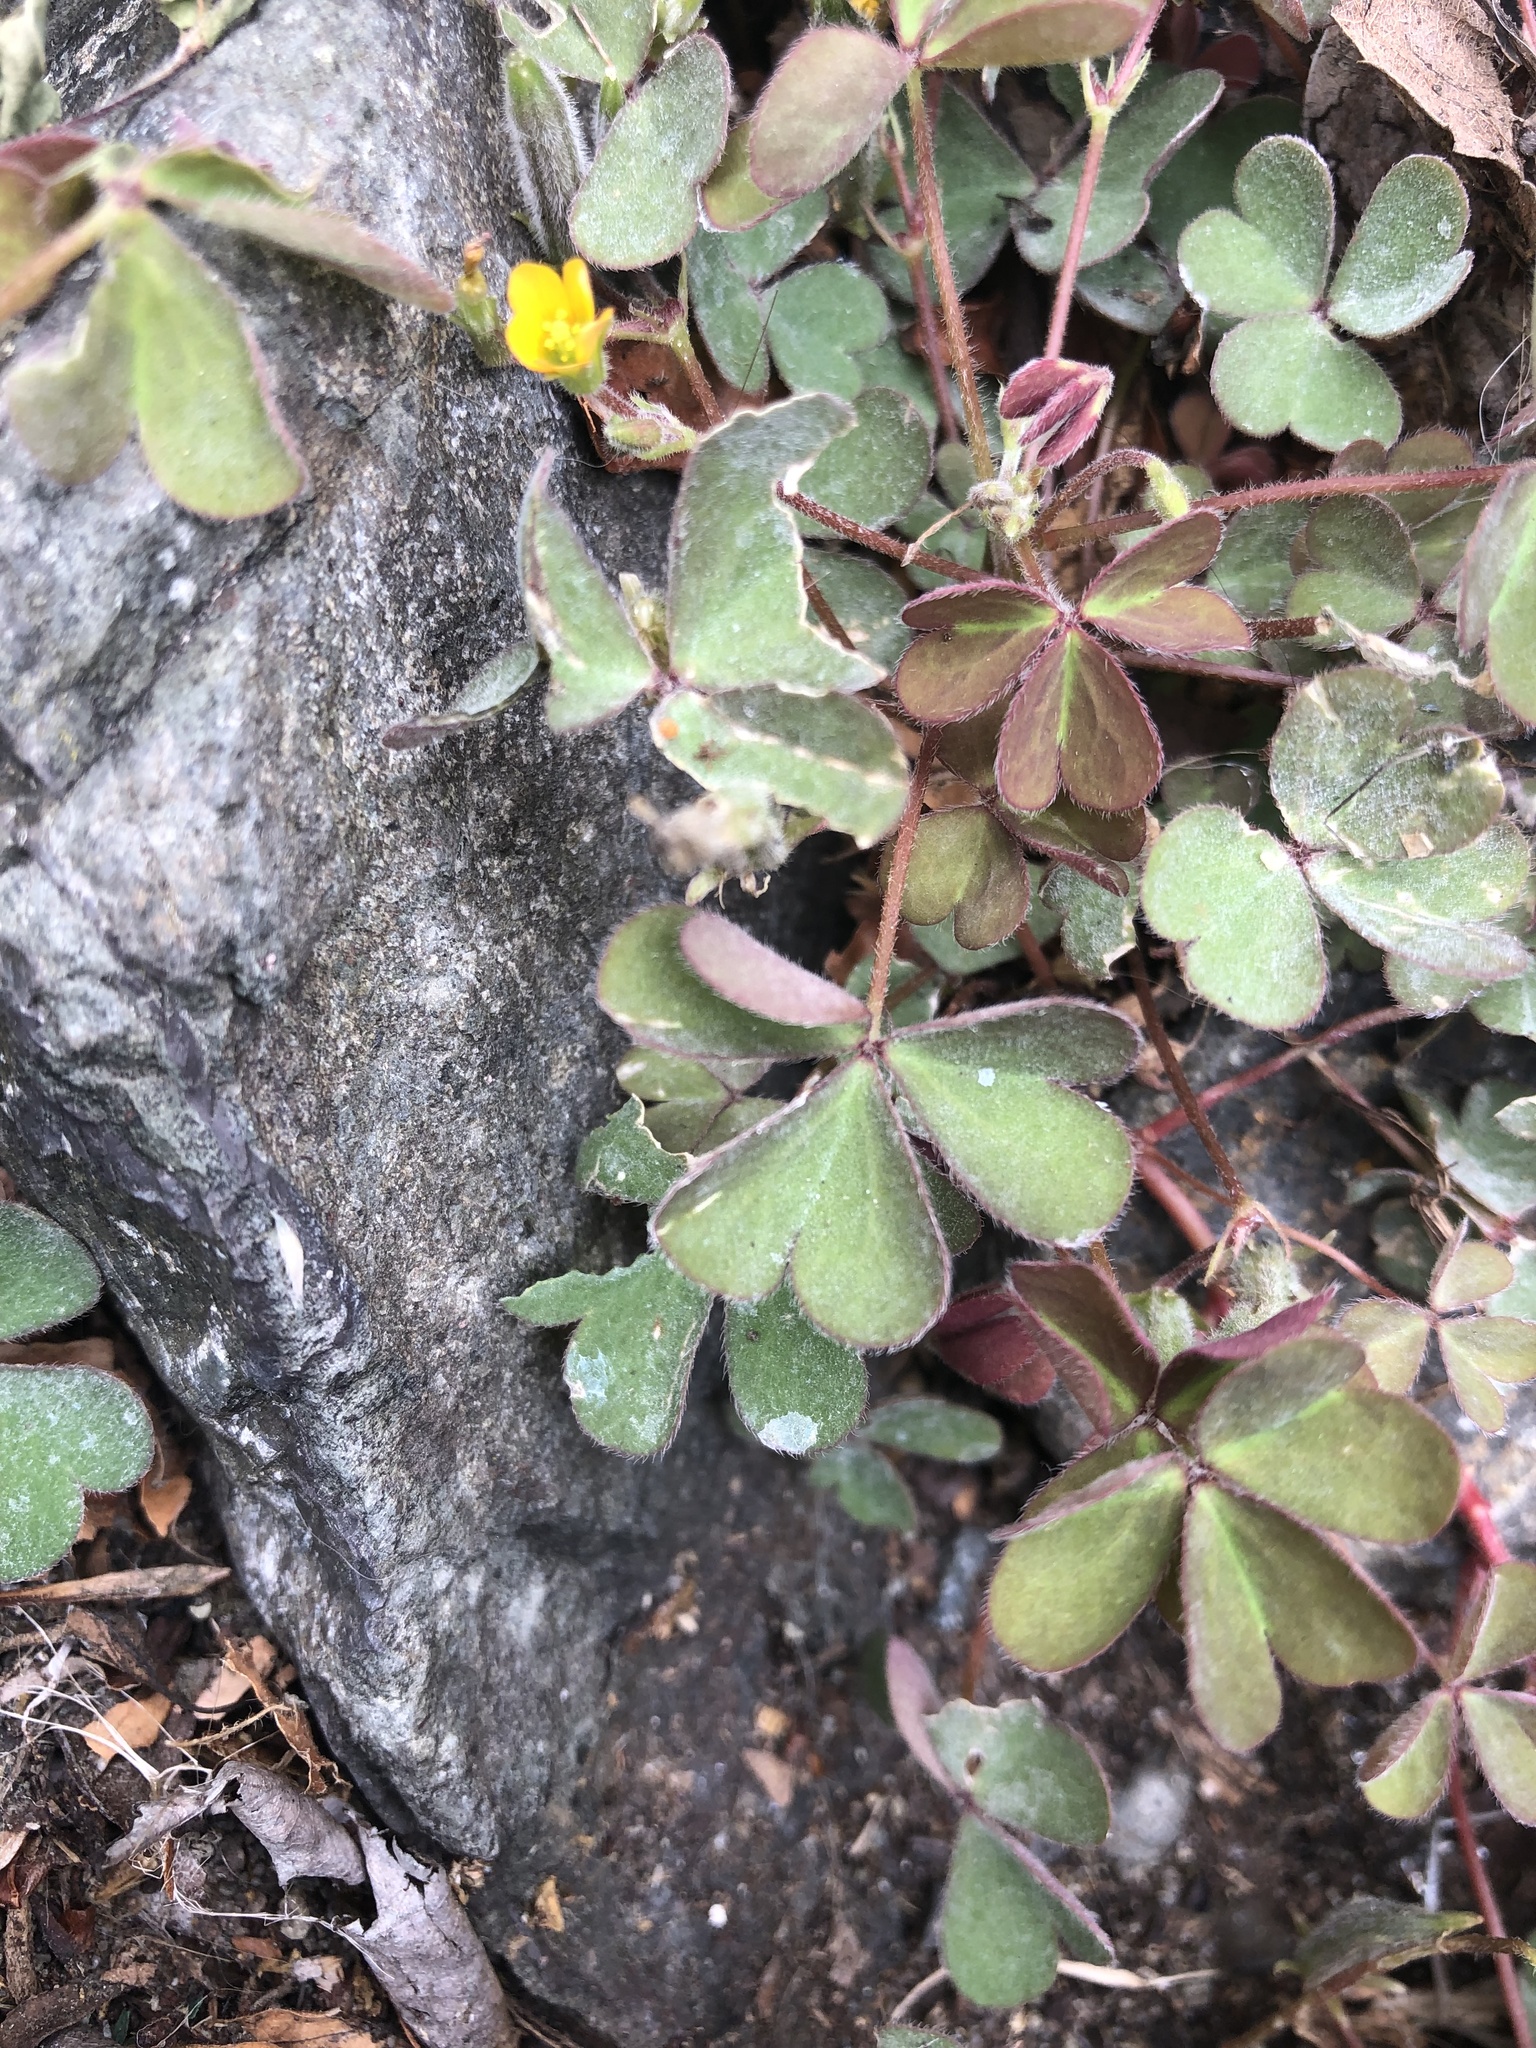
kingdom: Plantae
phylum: Tracheophyta
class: Magnoliopsida
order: Oxalidales
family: Oxalidaceae
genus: Oxalis
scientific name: Oxalis corniculata
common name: Procumbent yellow-sorrel
